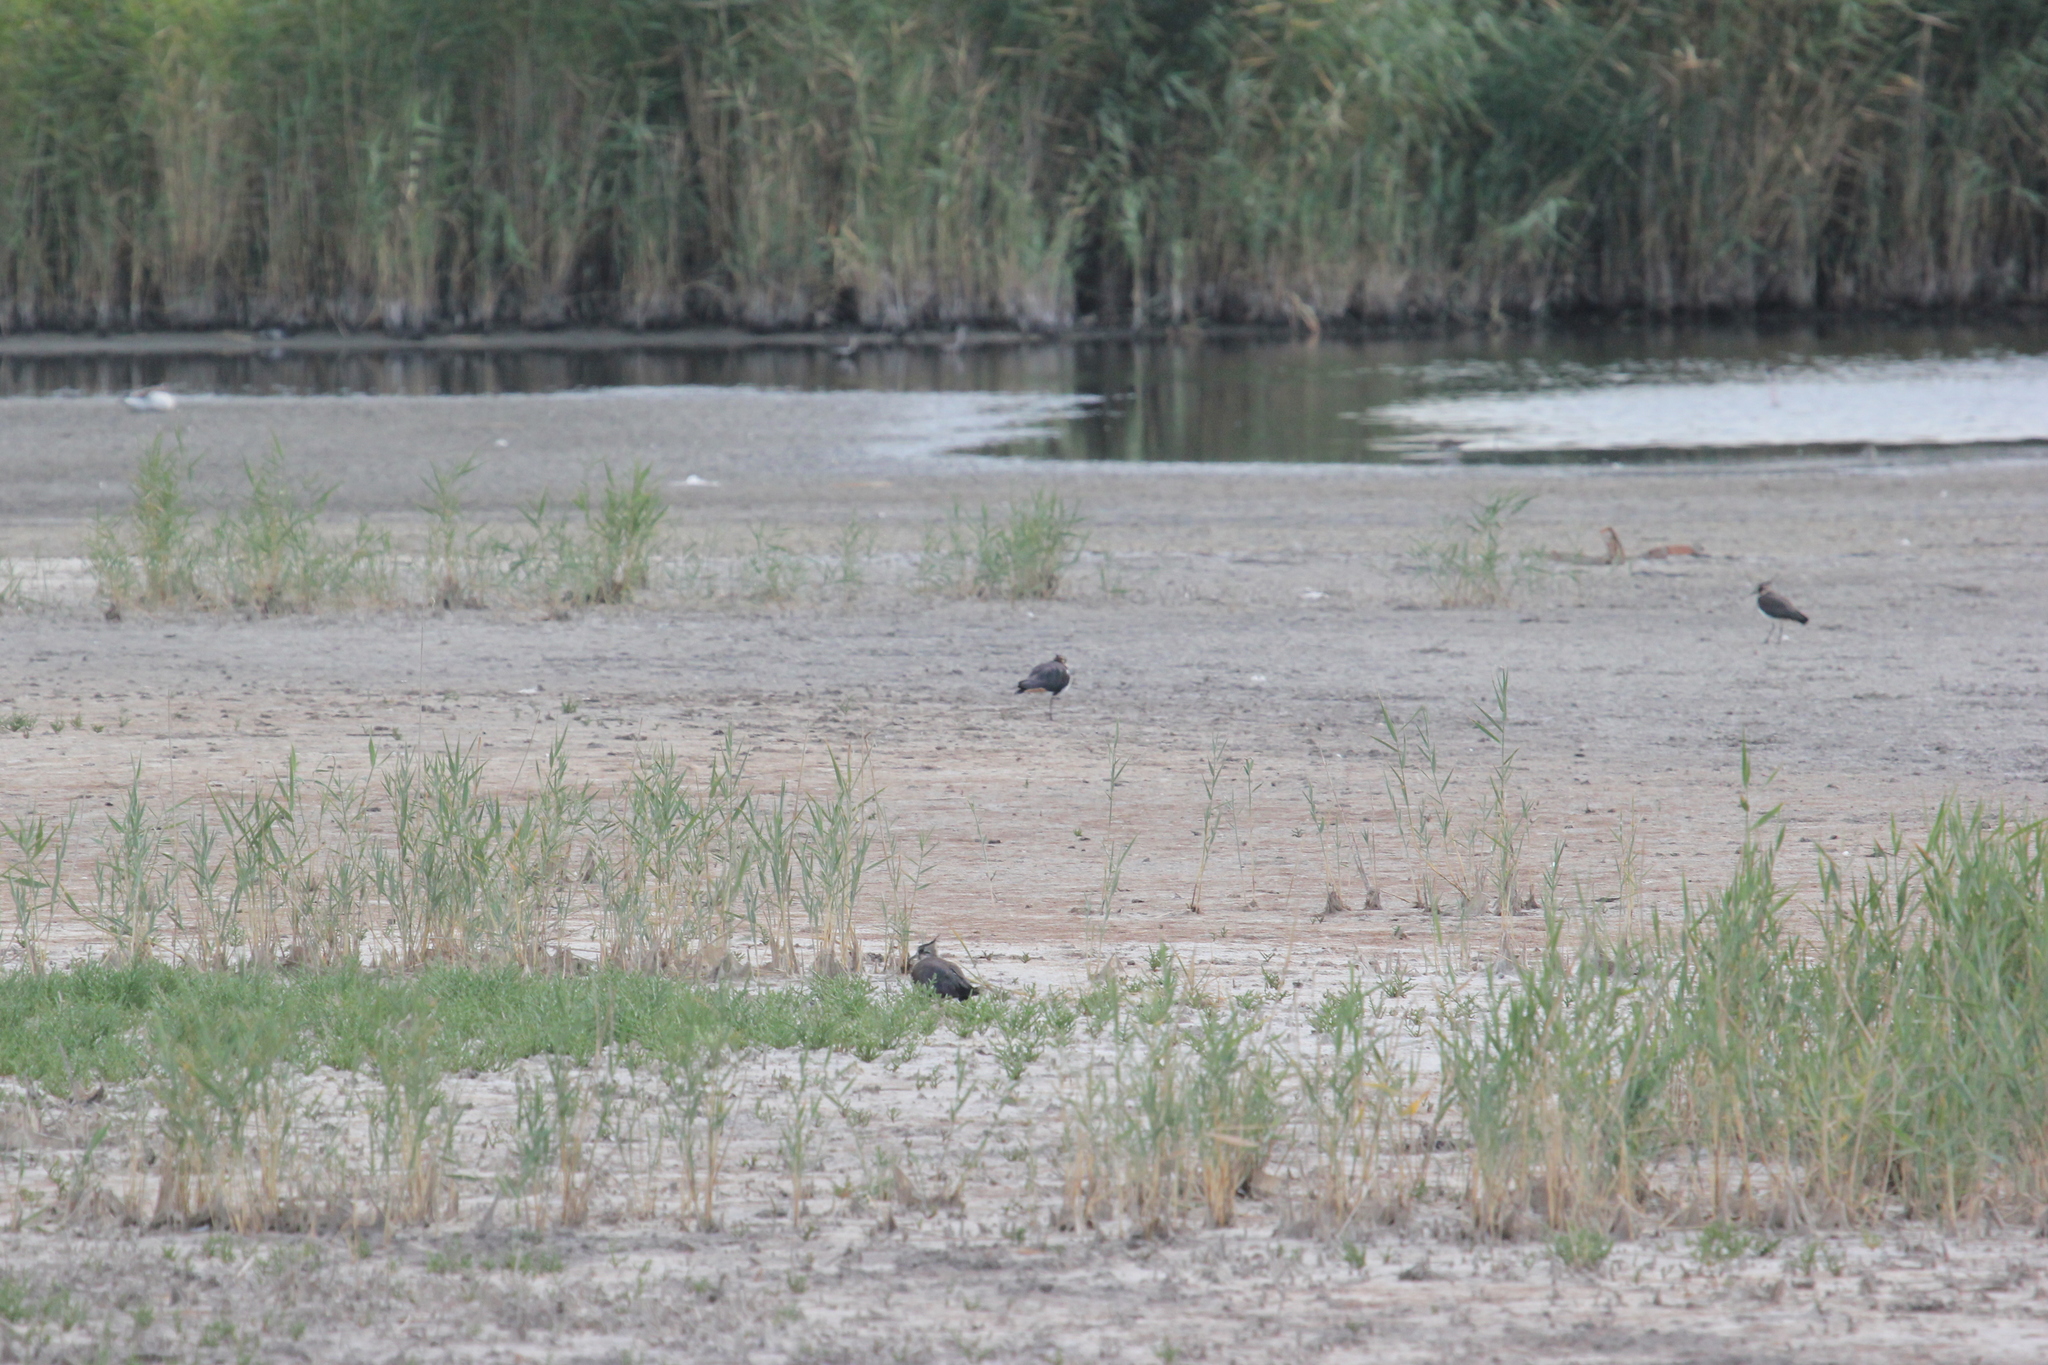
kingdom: Animalia
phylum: Chordata
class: Aves
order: Charadriiformes
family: Charadriidae
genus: Vanellus
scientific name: Vanellus vanellus
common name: Northern lapwing
